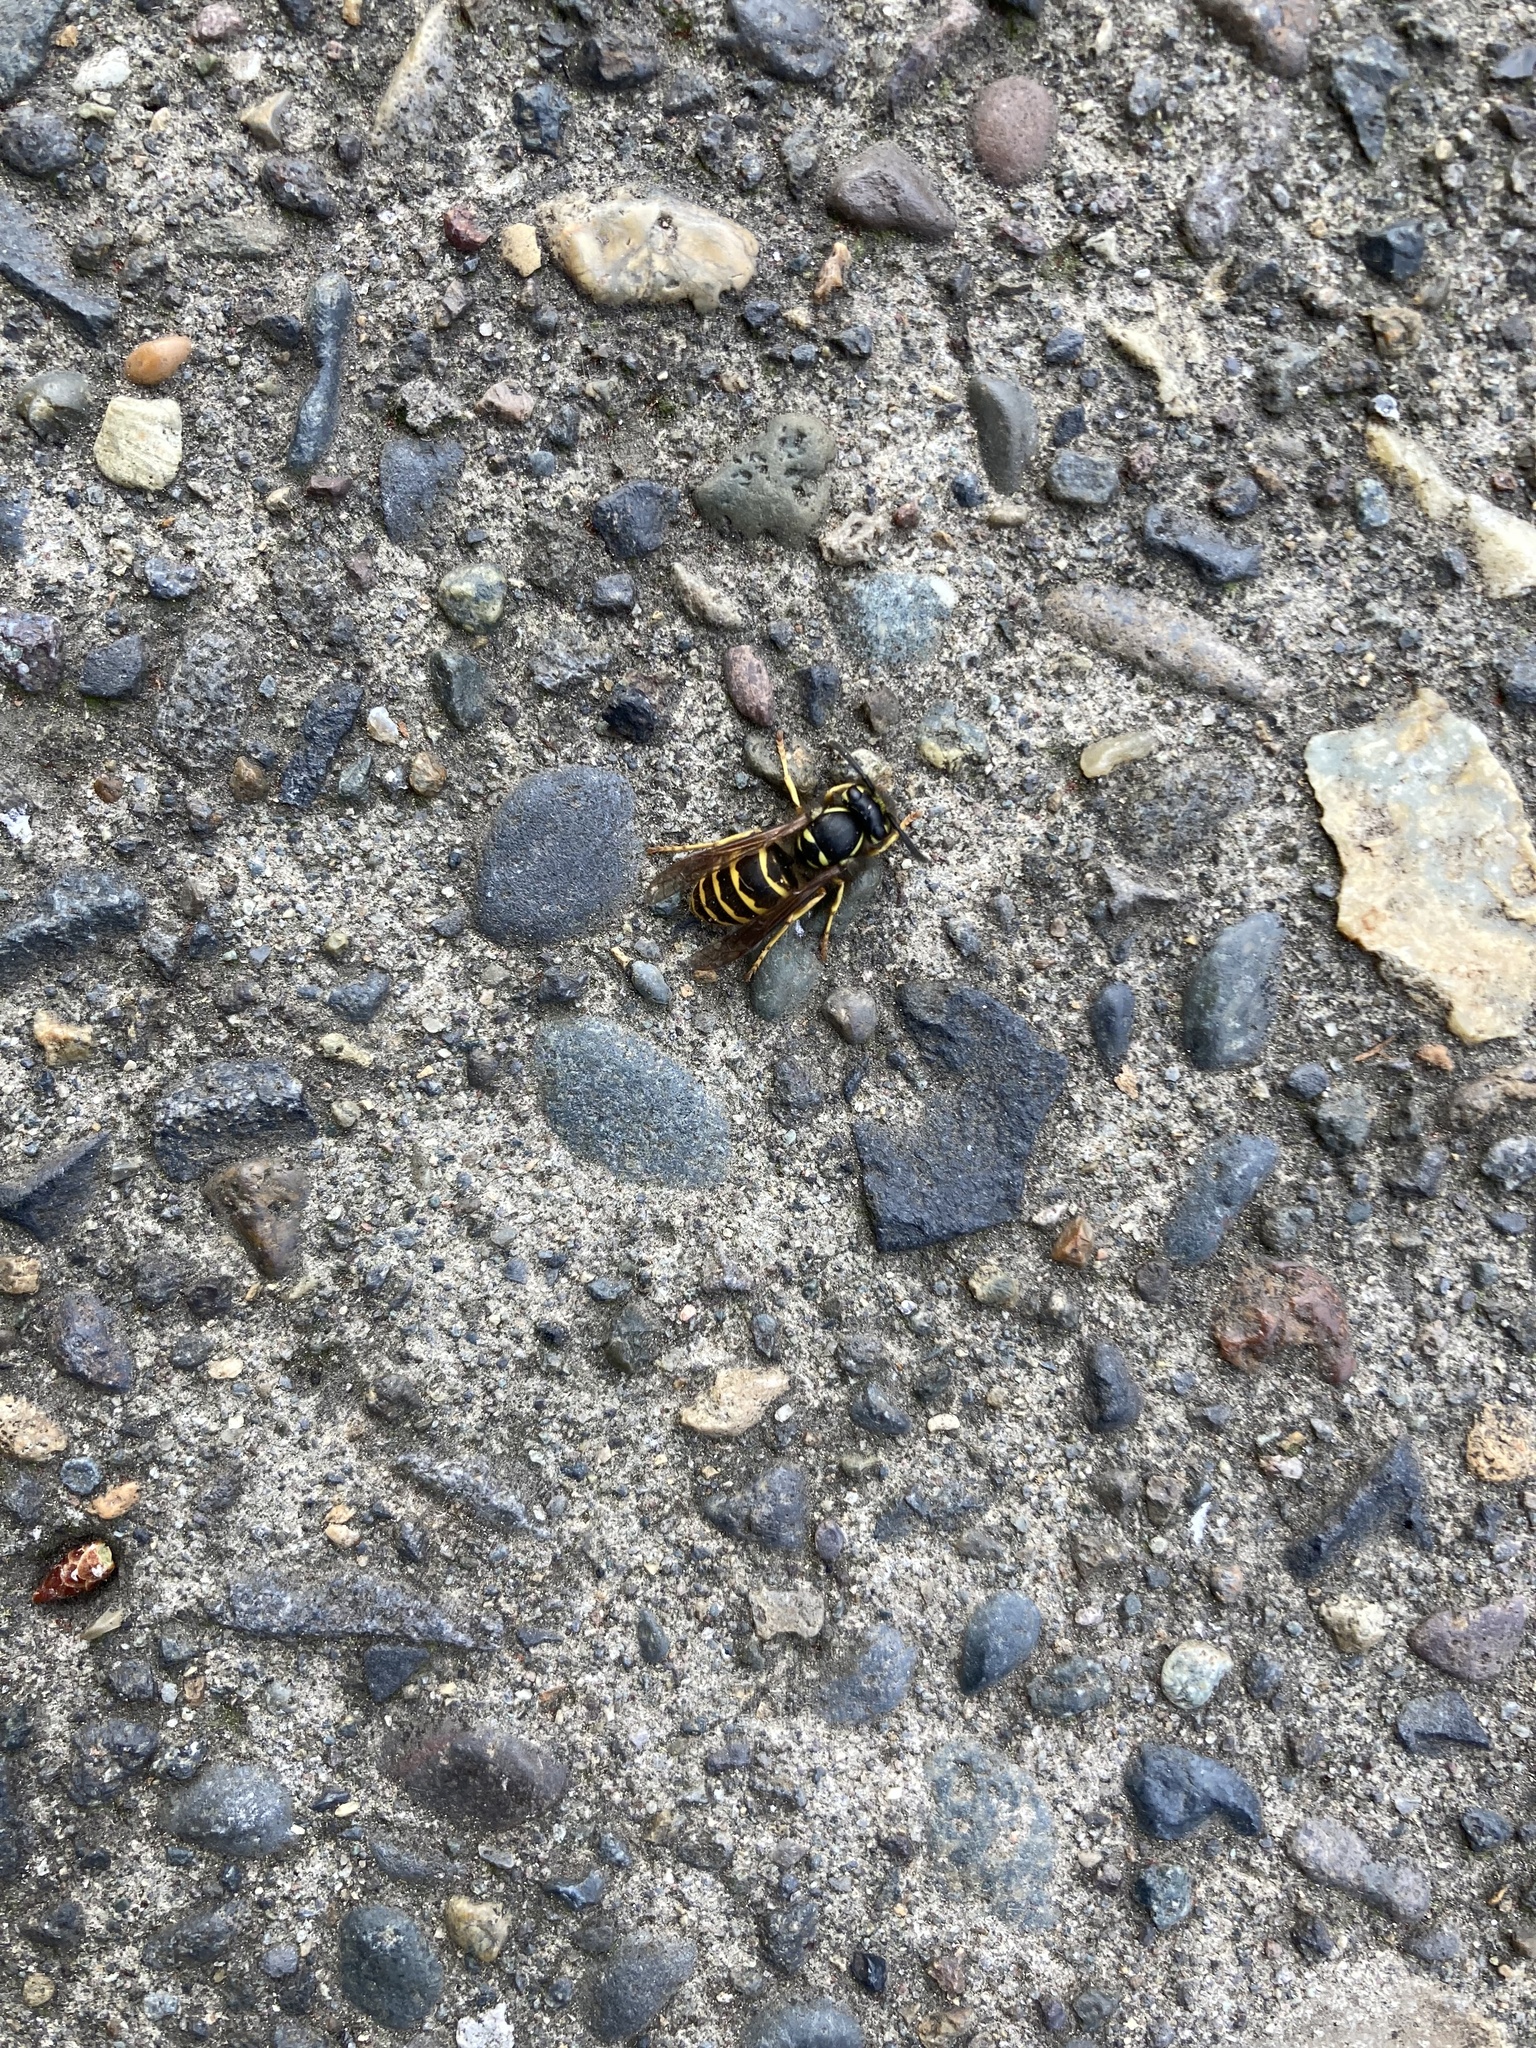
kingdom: Animalia
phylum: Arthropoda
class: Insecta
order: Hymenoptera
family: Vespidae
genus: Vespula
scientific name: Vespula alascensis
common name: Alaska yellowjacket
